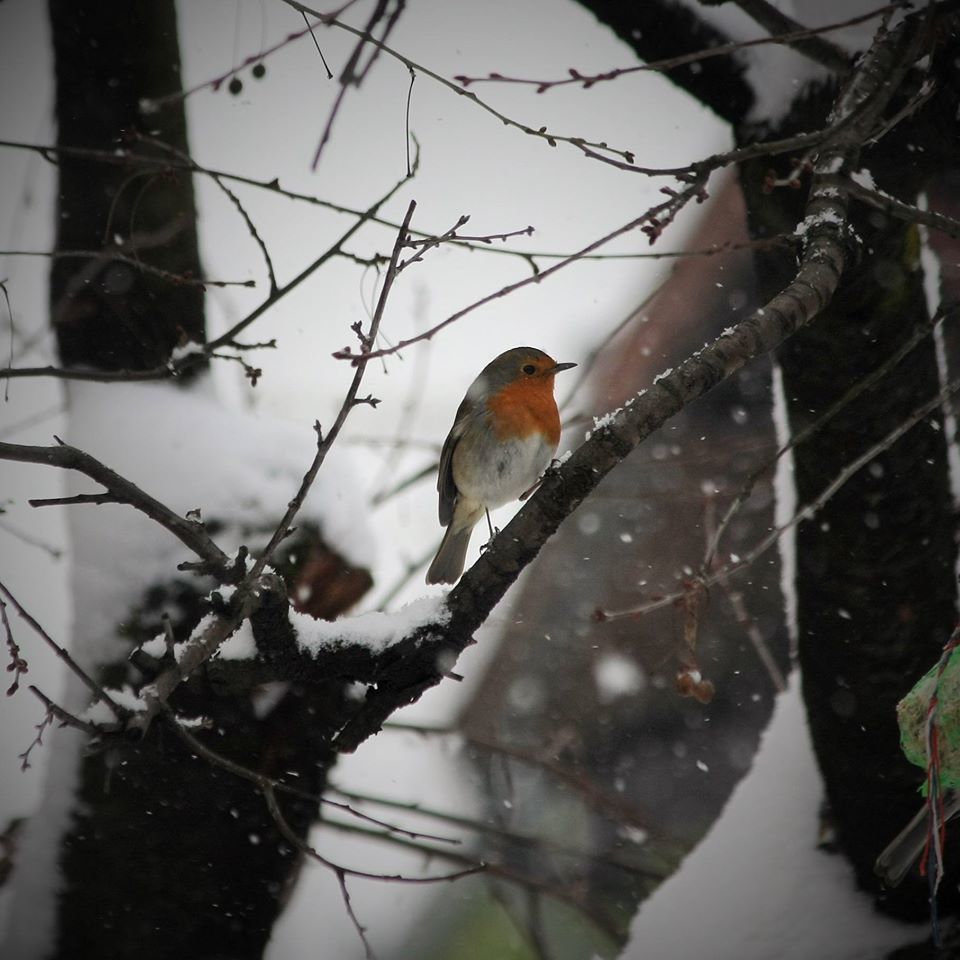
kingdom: Animalia
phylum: Chordata
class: Aves
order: Passeriformes
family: Muscicapidae
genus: Erithacus
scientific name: Erithacus rubecula
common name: European robin
